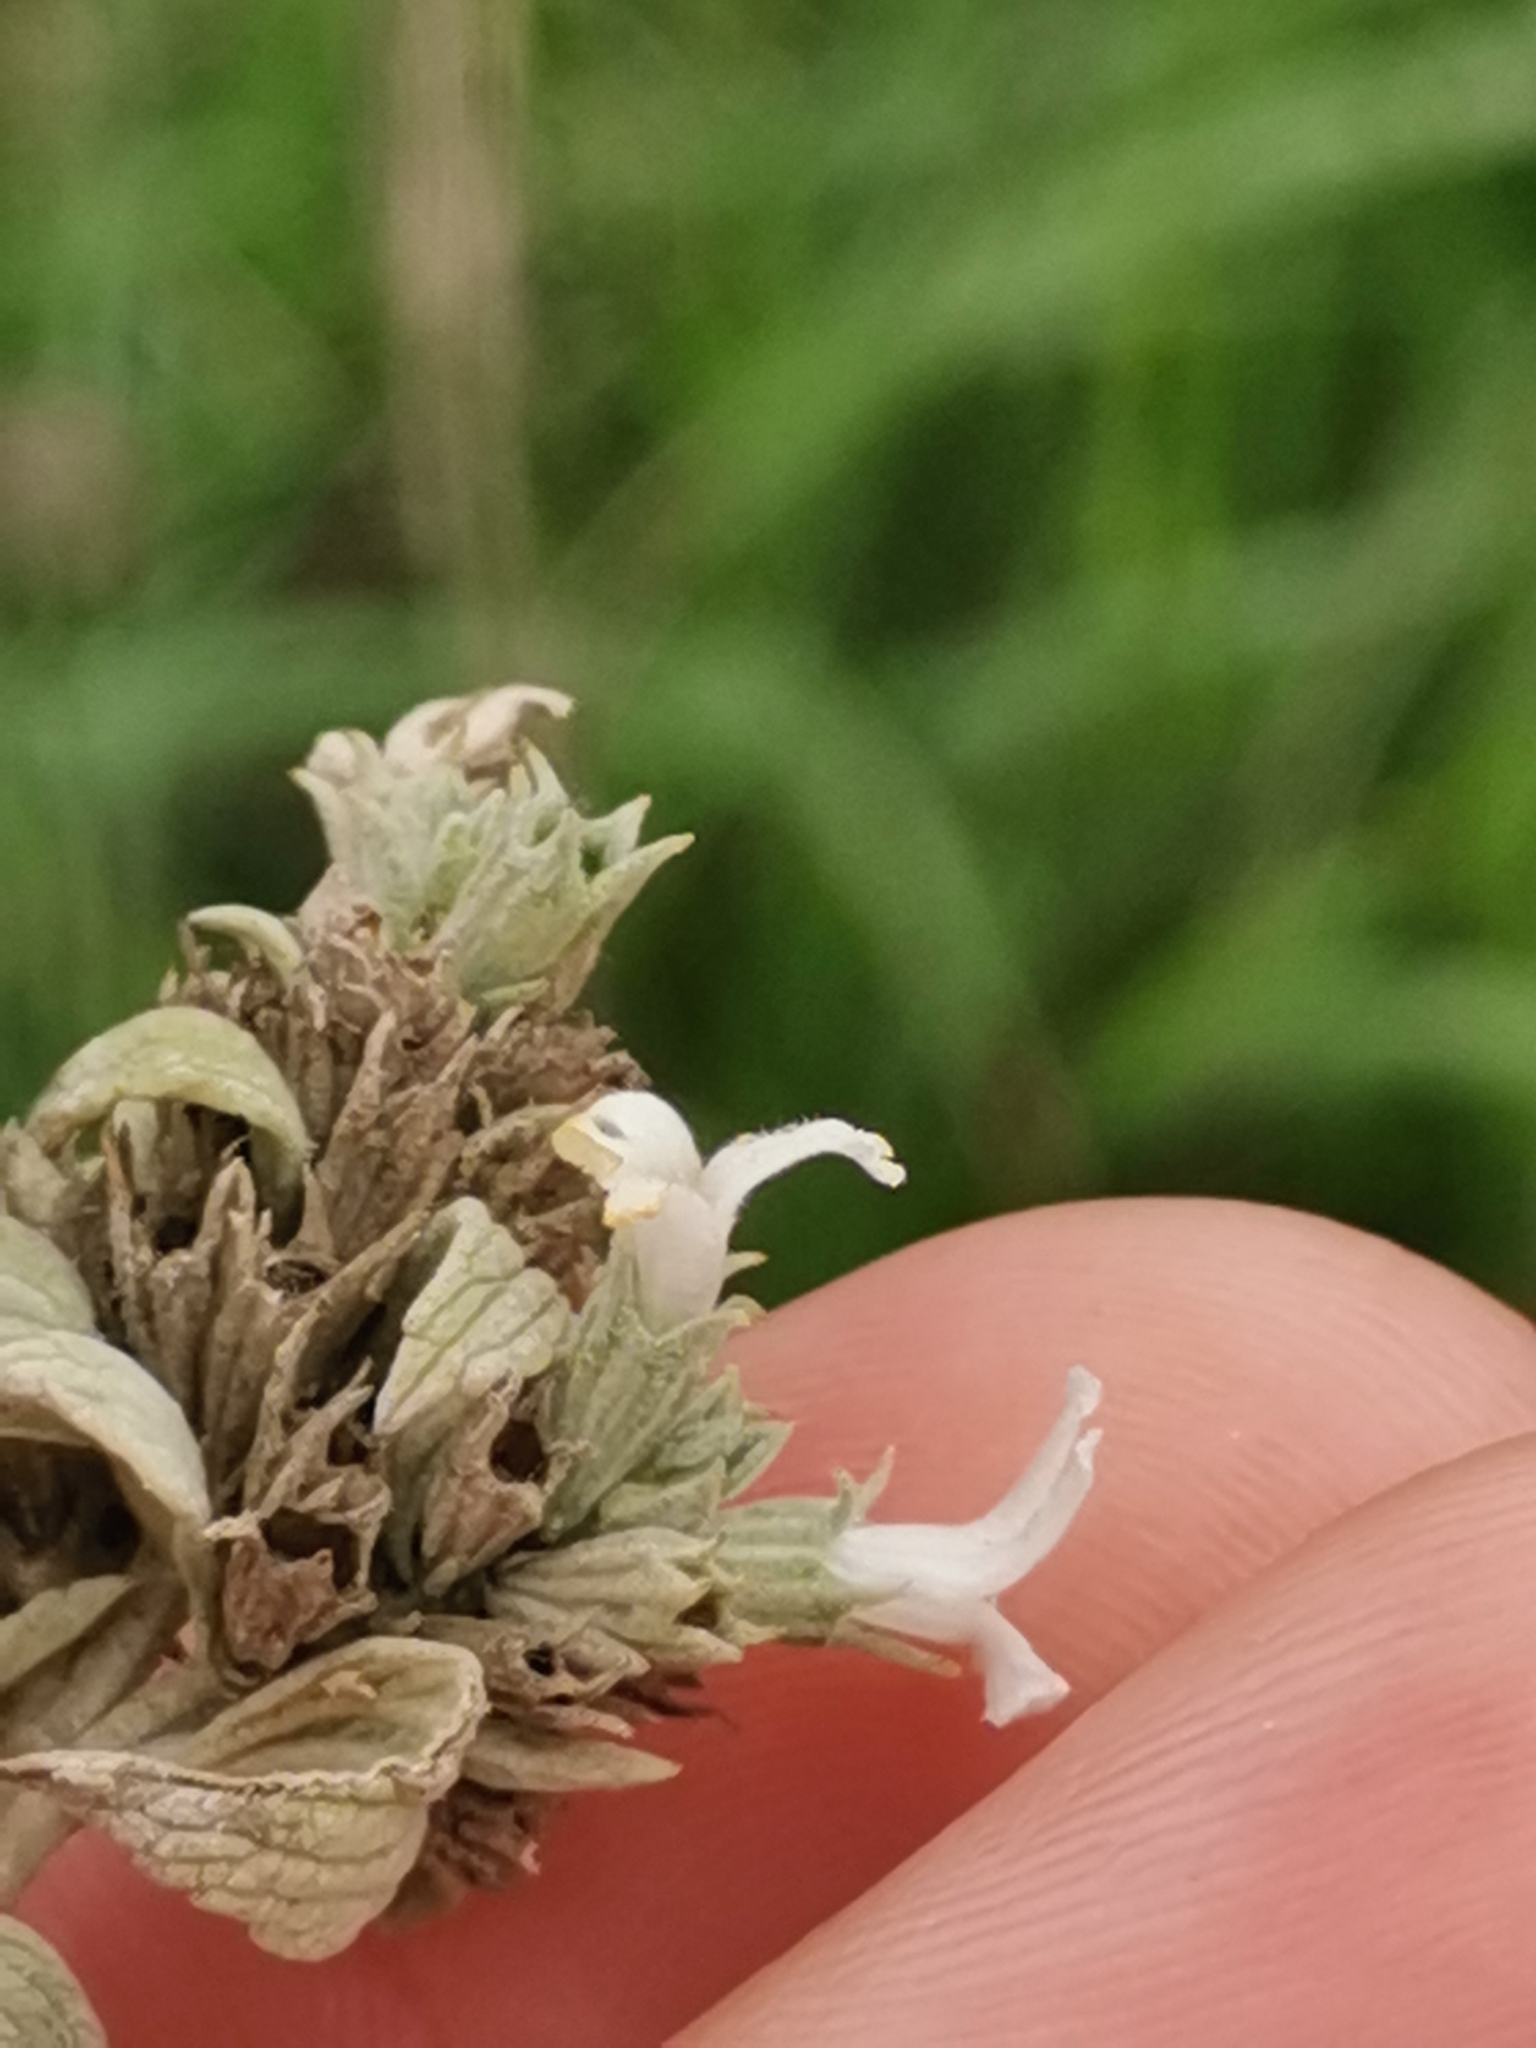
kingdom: Plantae
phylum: Tracheophyta
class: Magnoliopsida
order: Lamiales
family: Lamiaceae
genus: Marrubium
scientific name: Marrubium peregrinum
